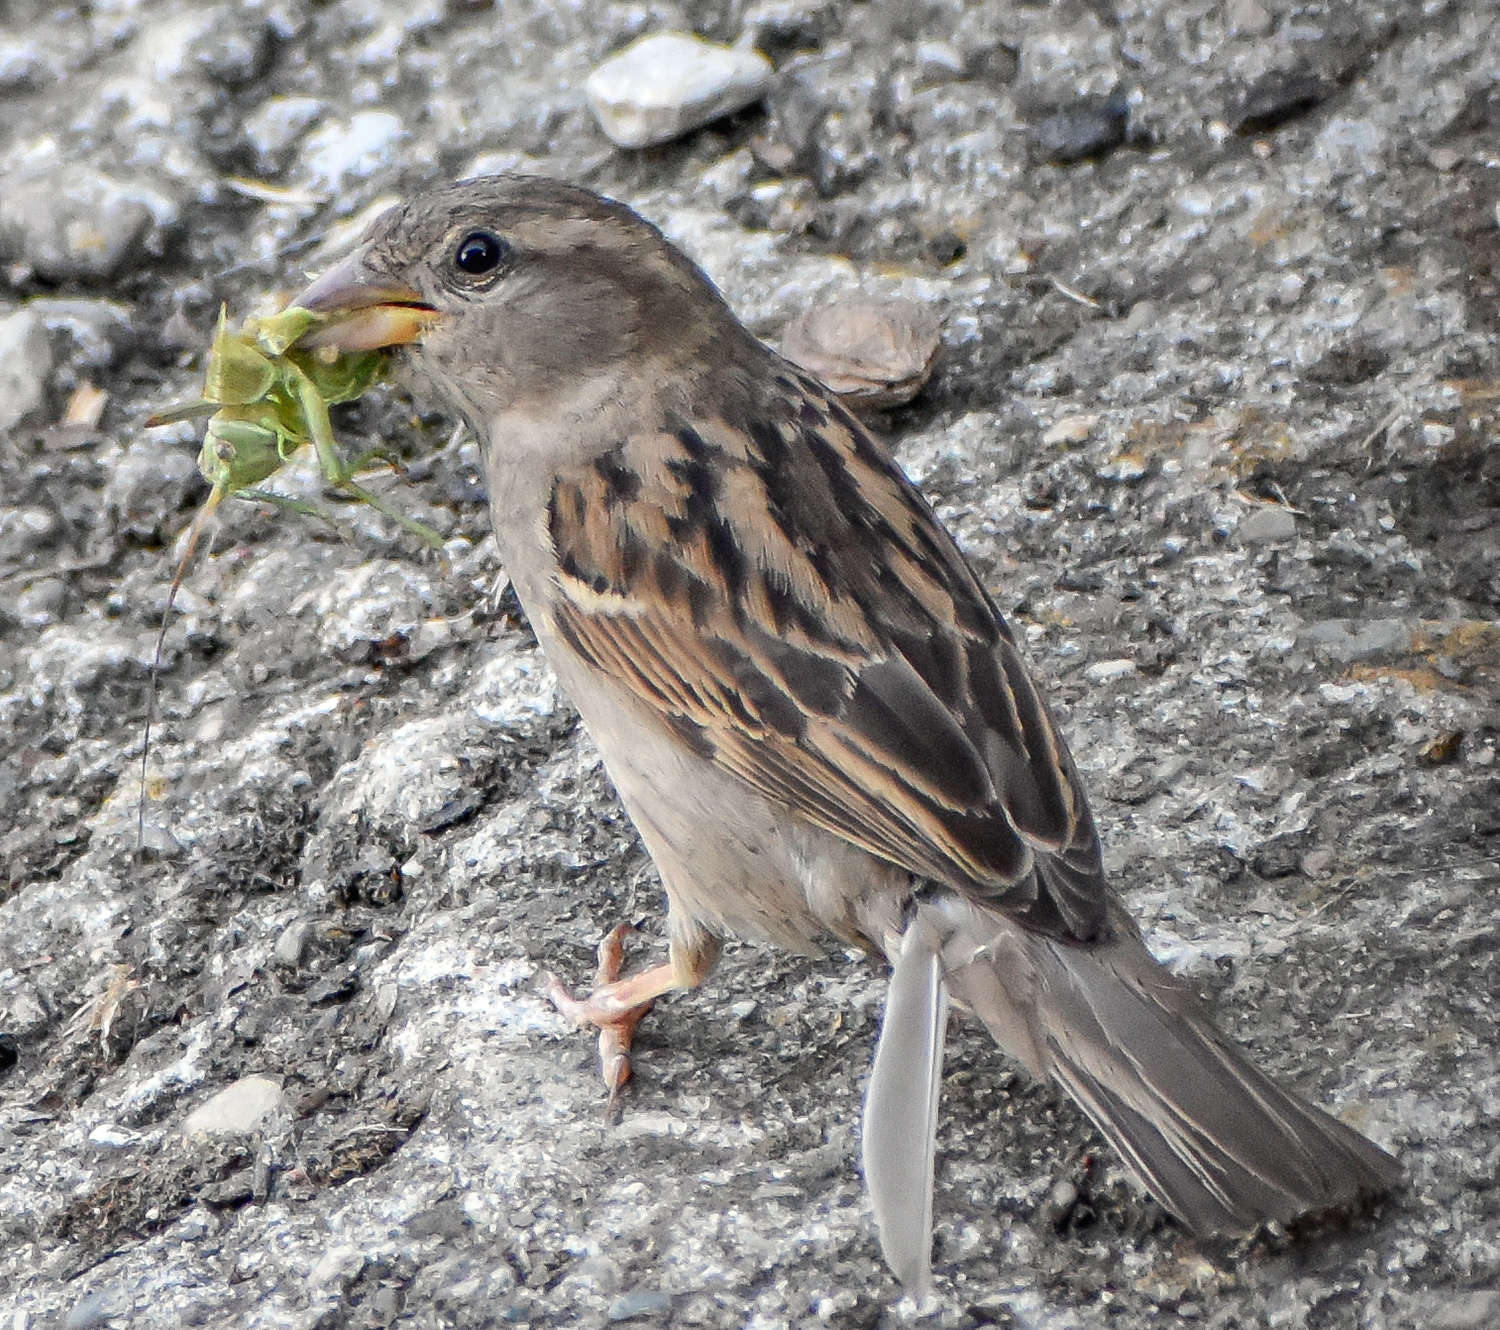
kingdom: Animalia
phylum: Chordata
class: Aves
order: Passeriformes
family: Passeridae
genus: Passer
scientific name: Passer italiae
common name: Italian sparrow
